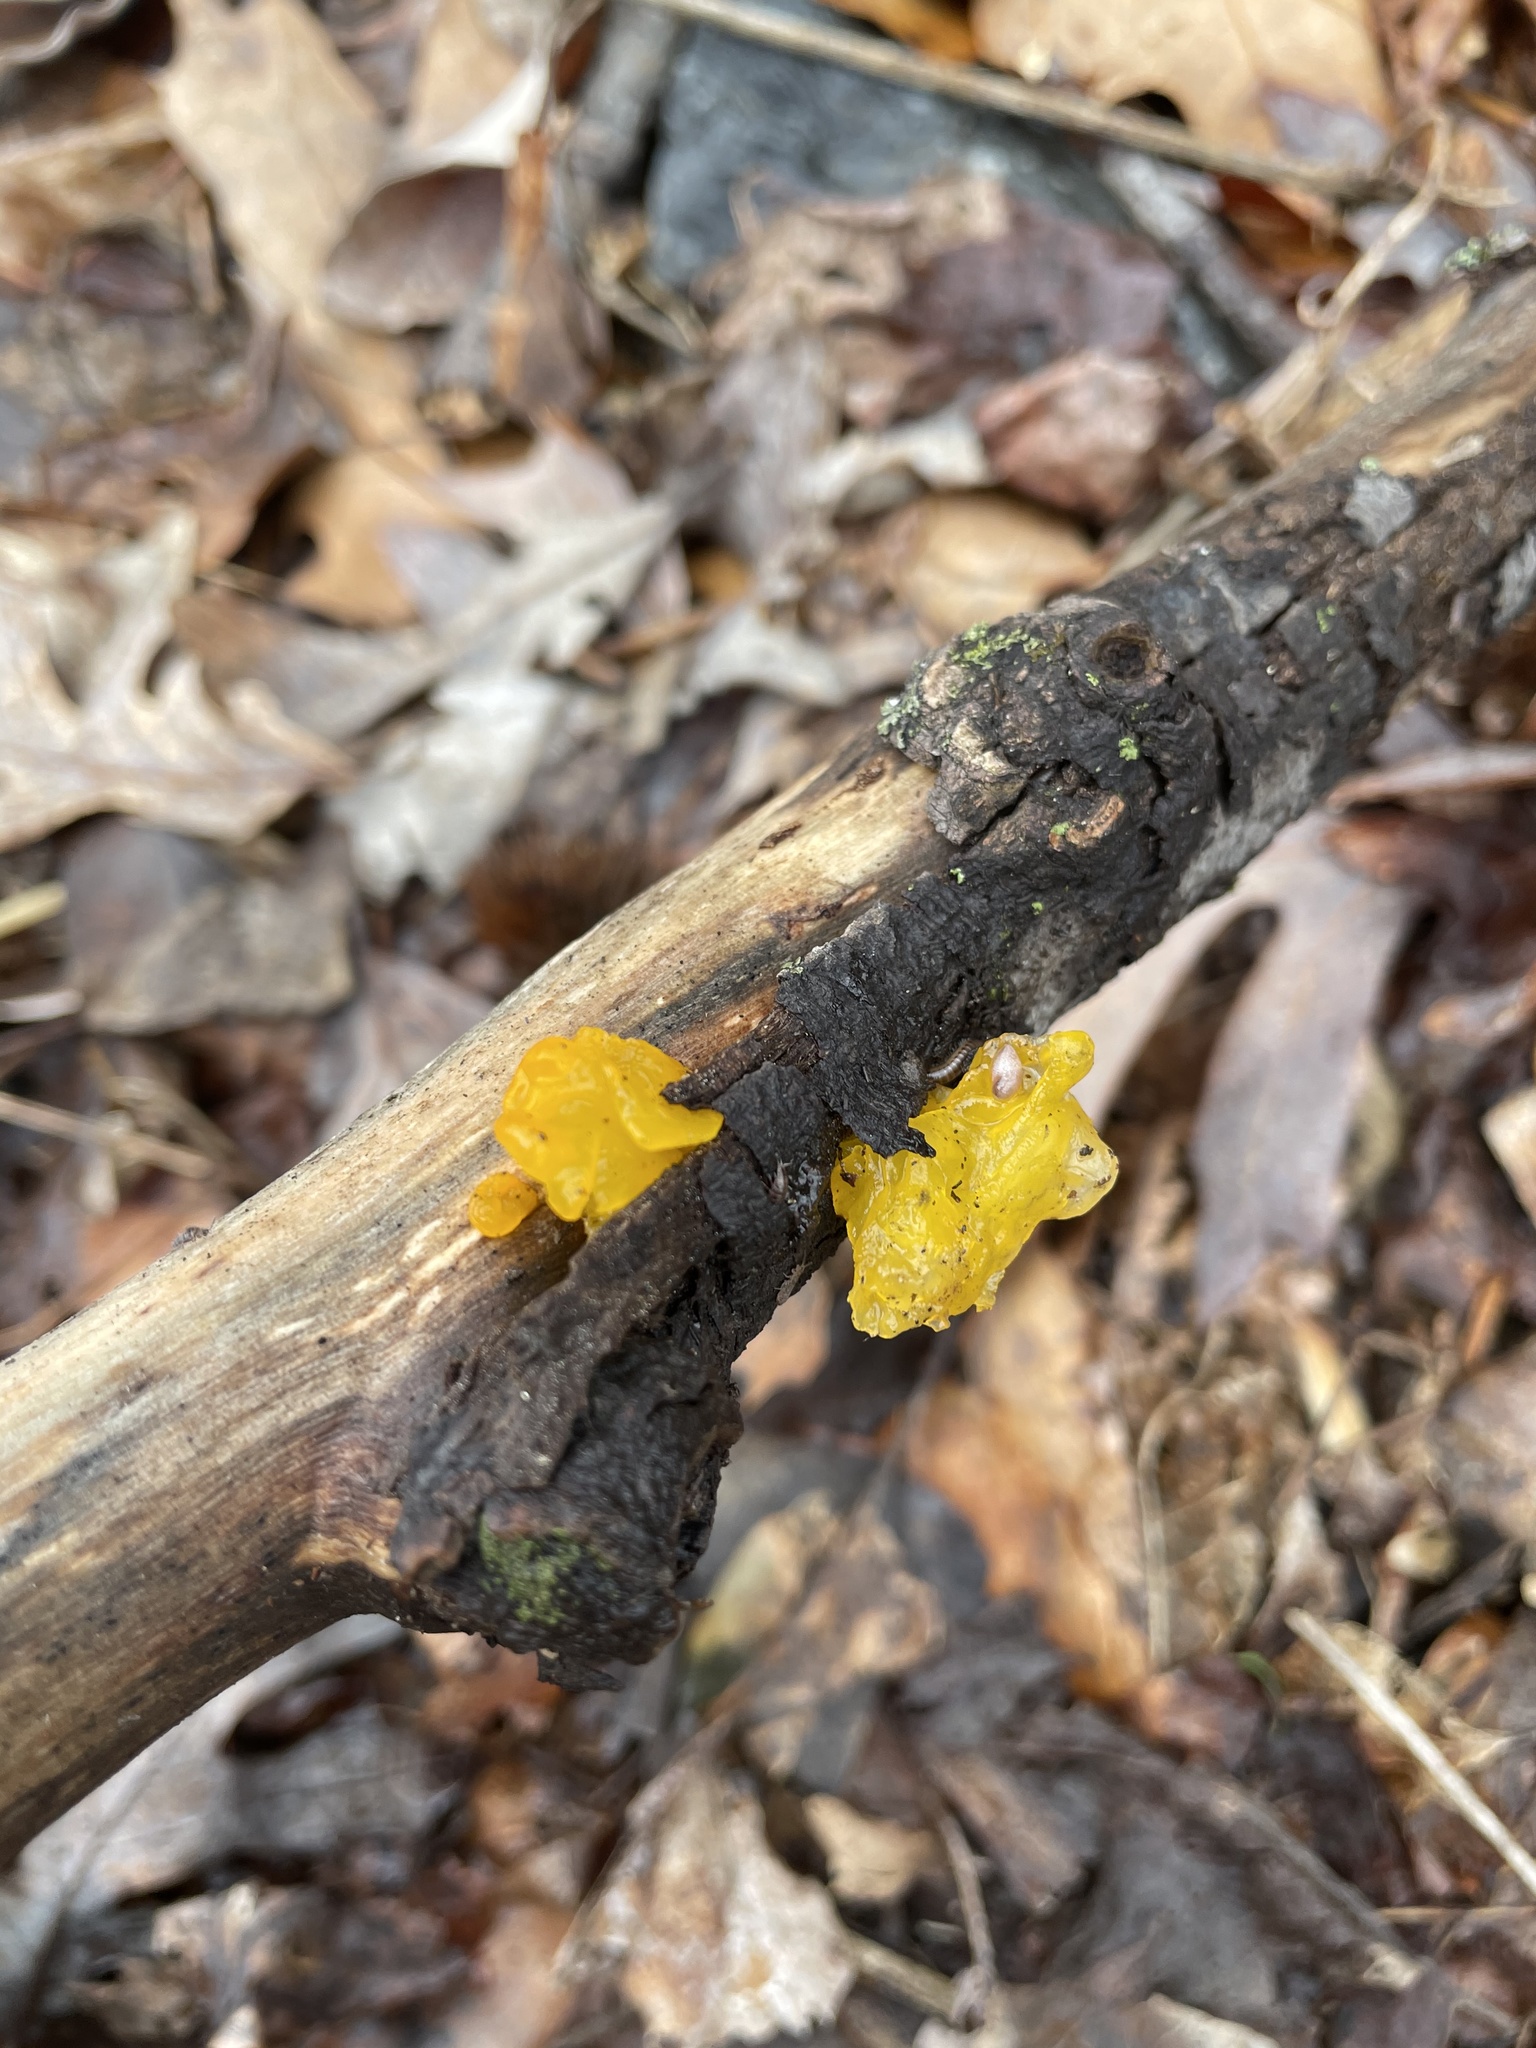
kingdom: Fungi
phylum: Basidiomycota
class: Tremellomycetes
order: Tremellales
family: Tremellaceae
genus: Tremella
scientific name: Tremella mesenterica
